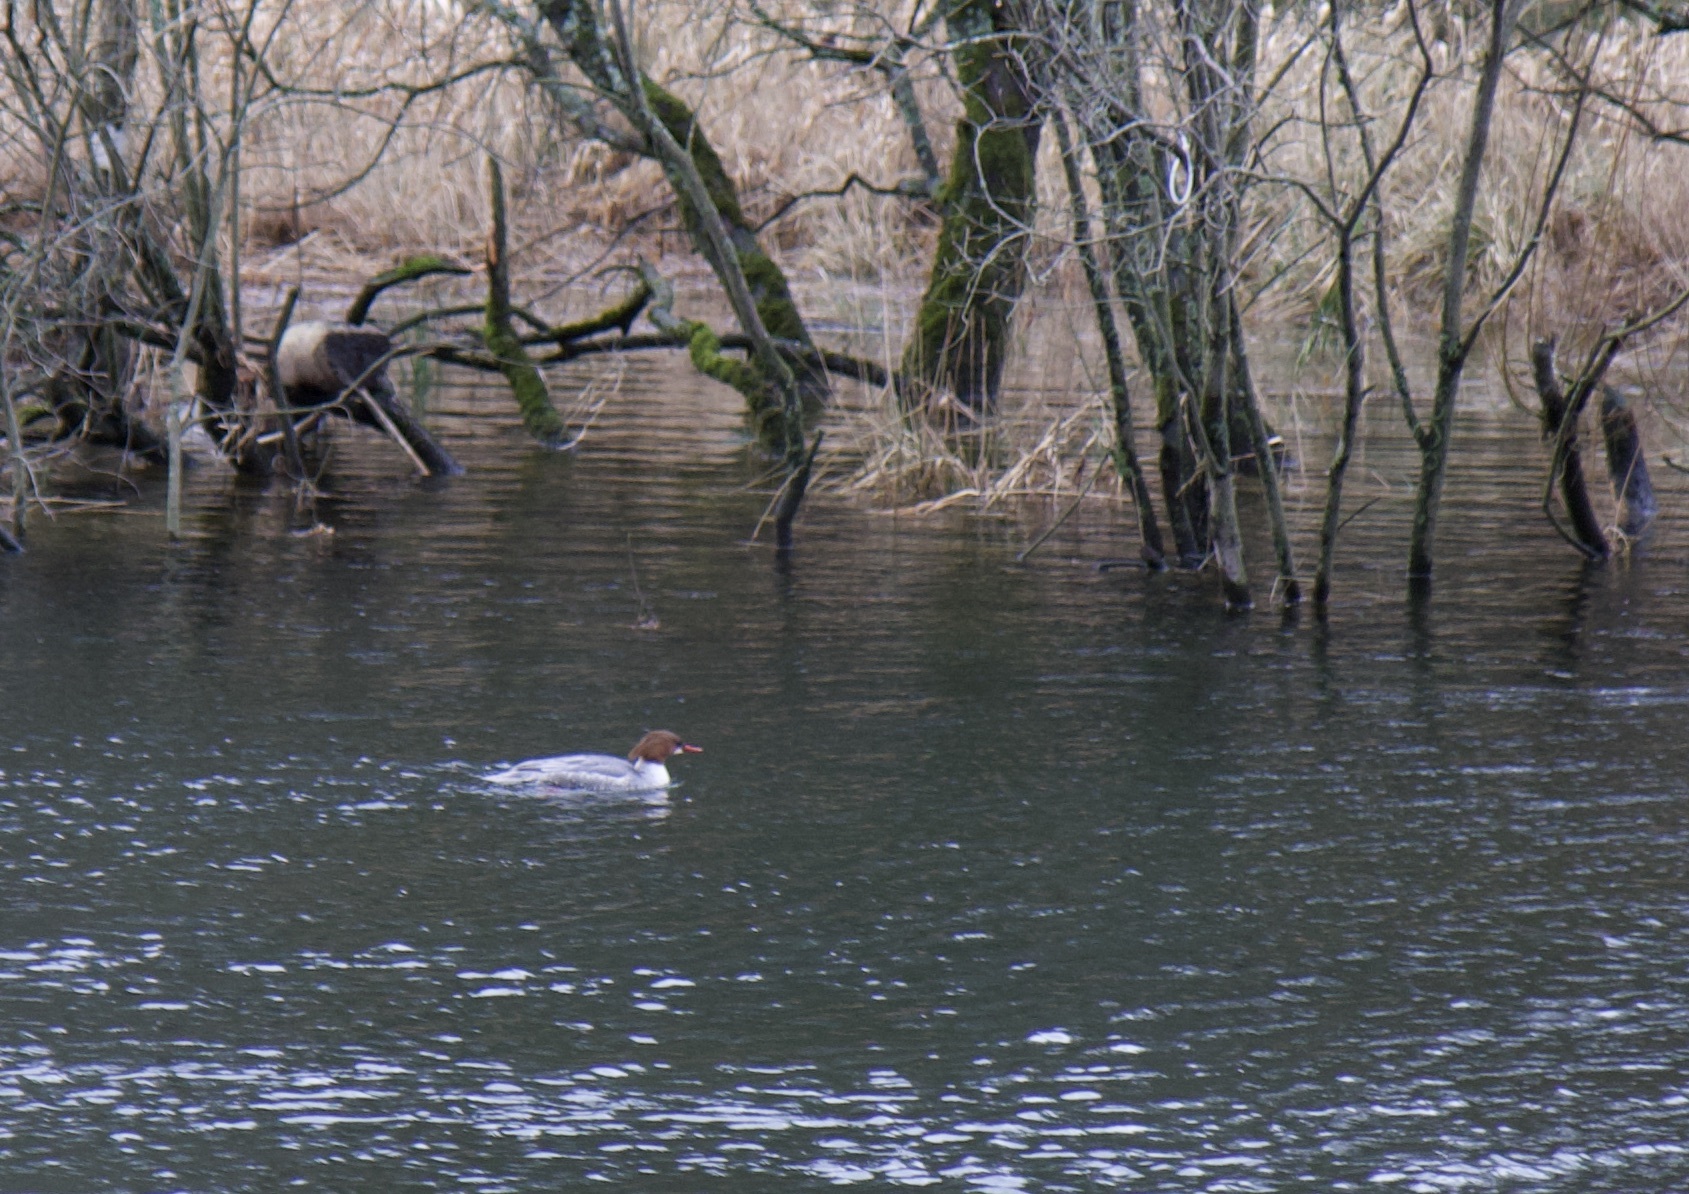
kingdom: Animalia
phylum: Chordata
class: Aves
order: Anseriformes
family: Anatidae
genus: Mergus
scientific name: Mergus merganser
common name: Common merganser
